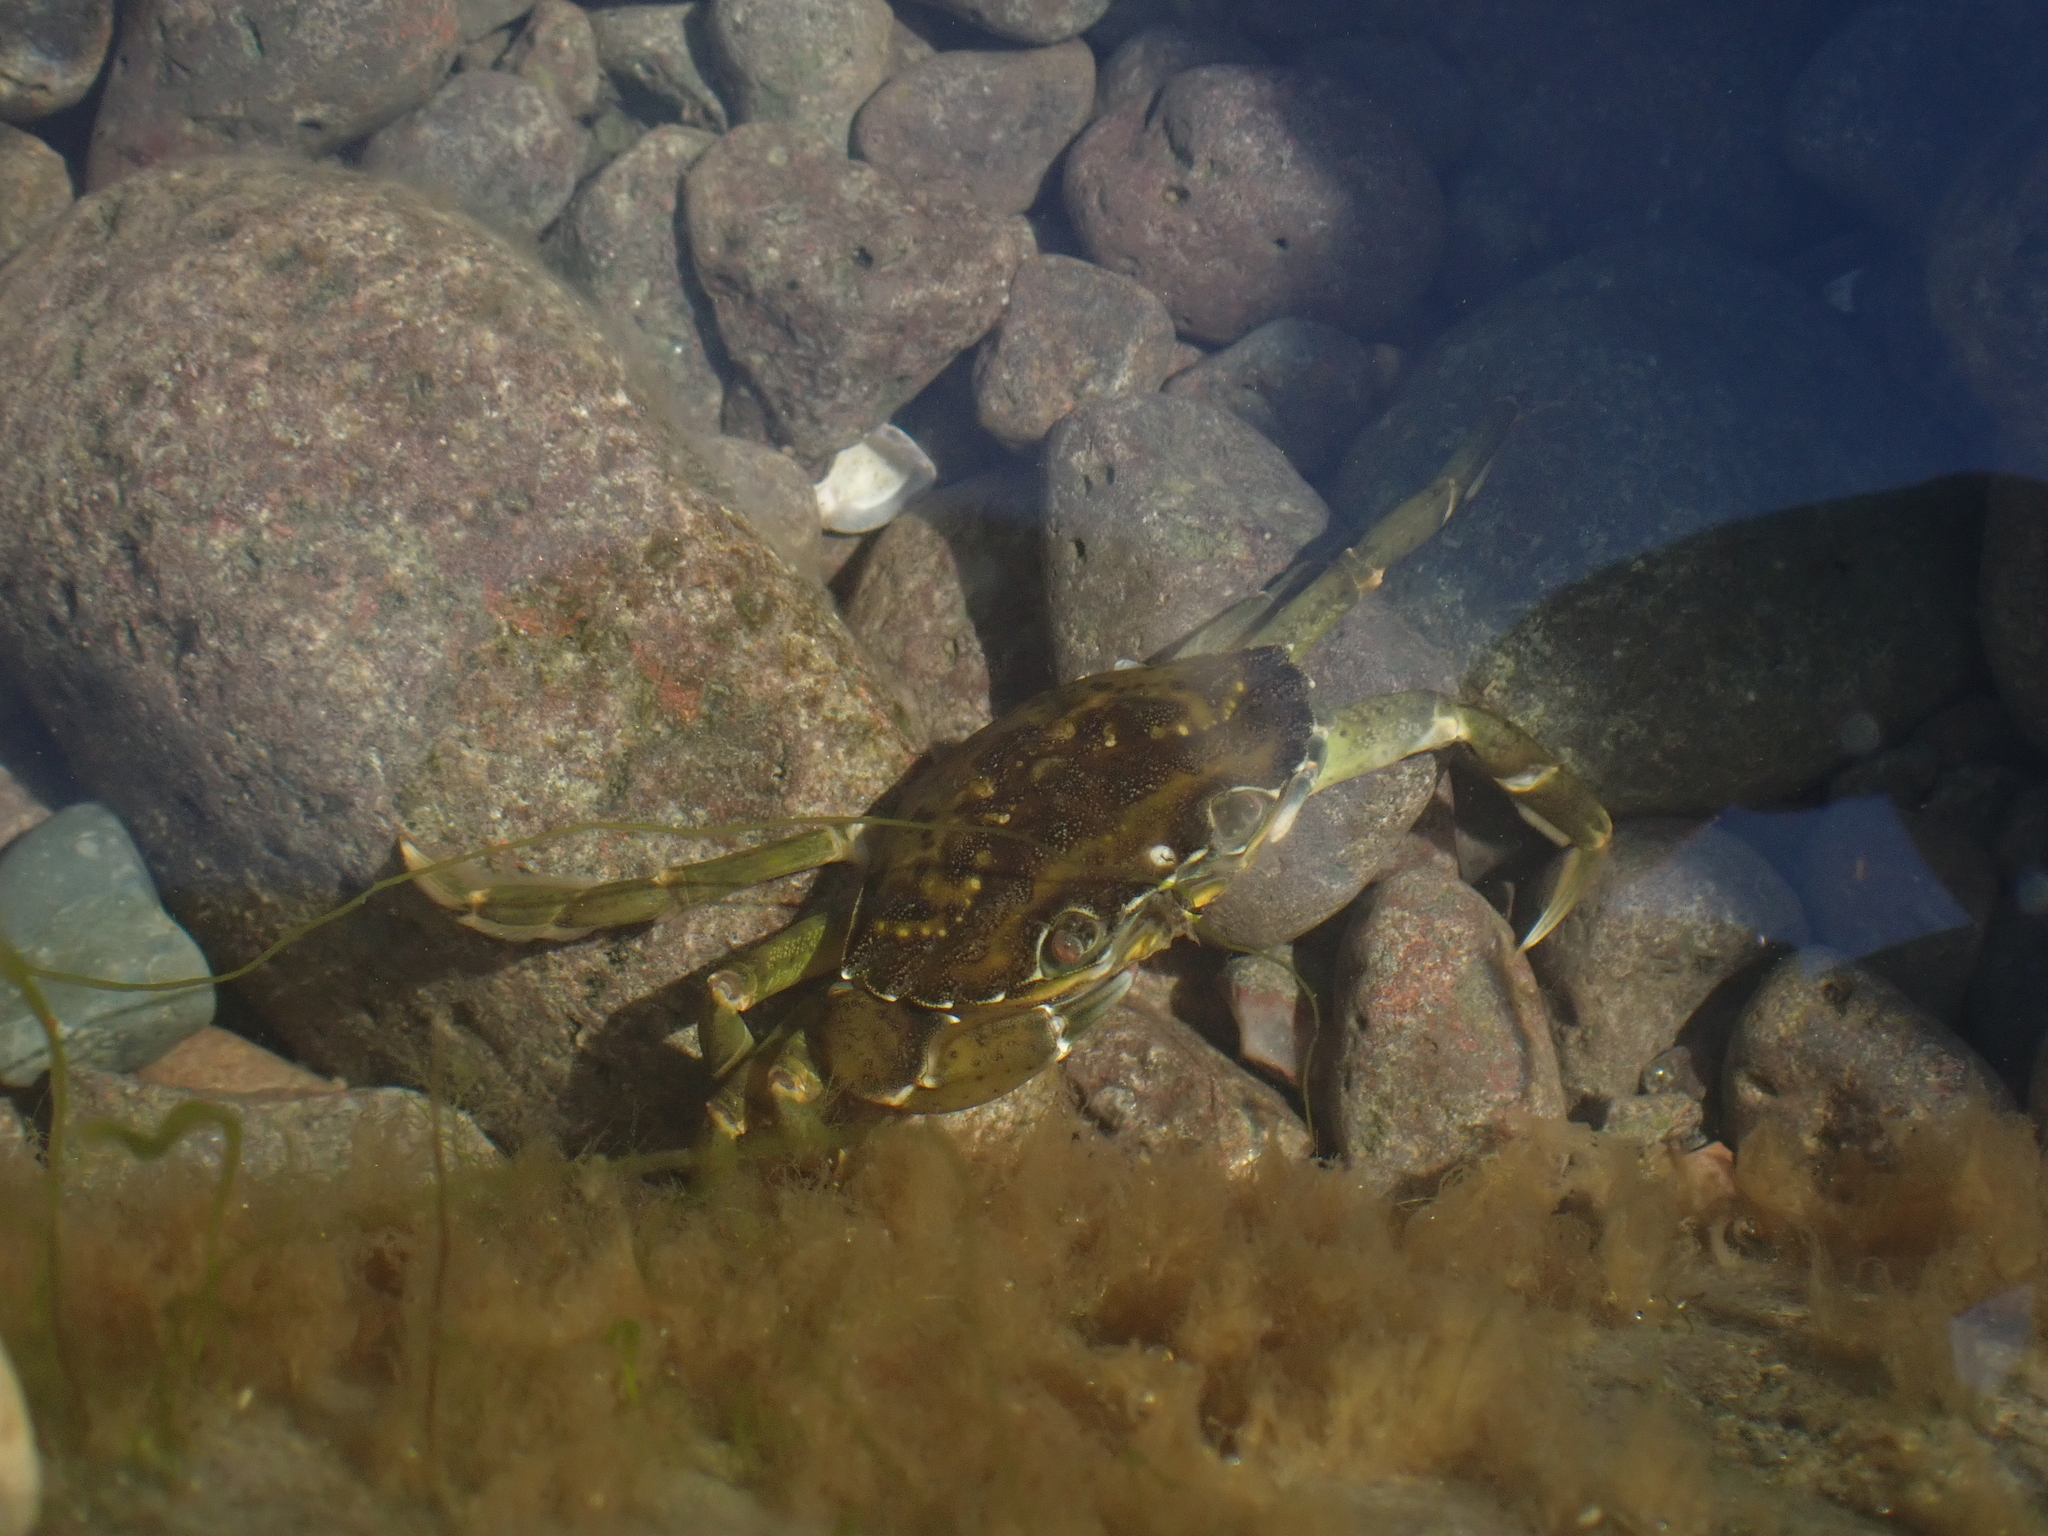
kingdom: Animalia
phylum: Arthropoda
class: Malacostraca
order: Decapoda
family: Carcinidae
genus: Carcinus
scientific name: Carcinus maenas
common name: European green crab
